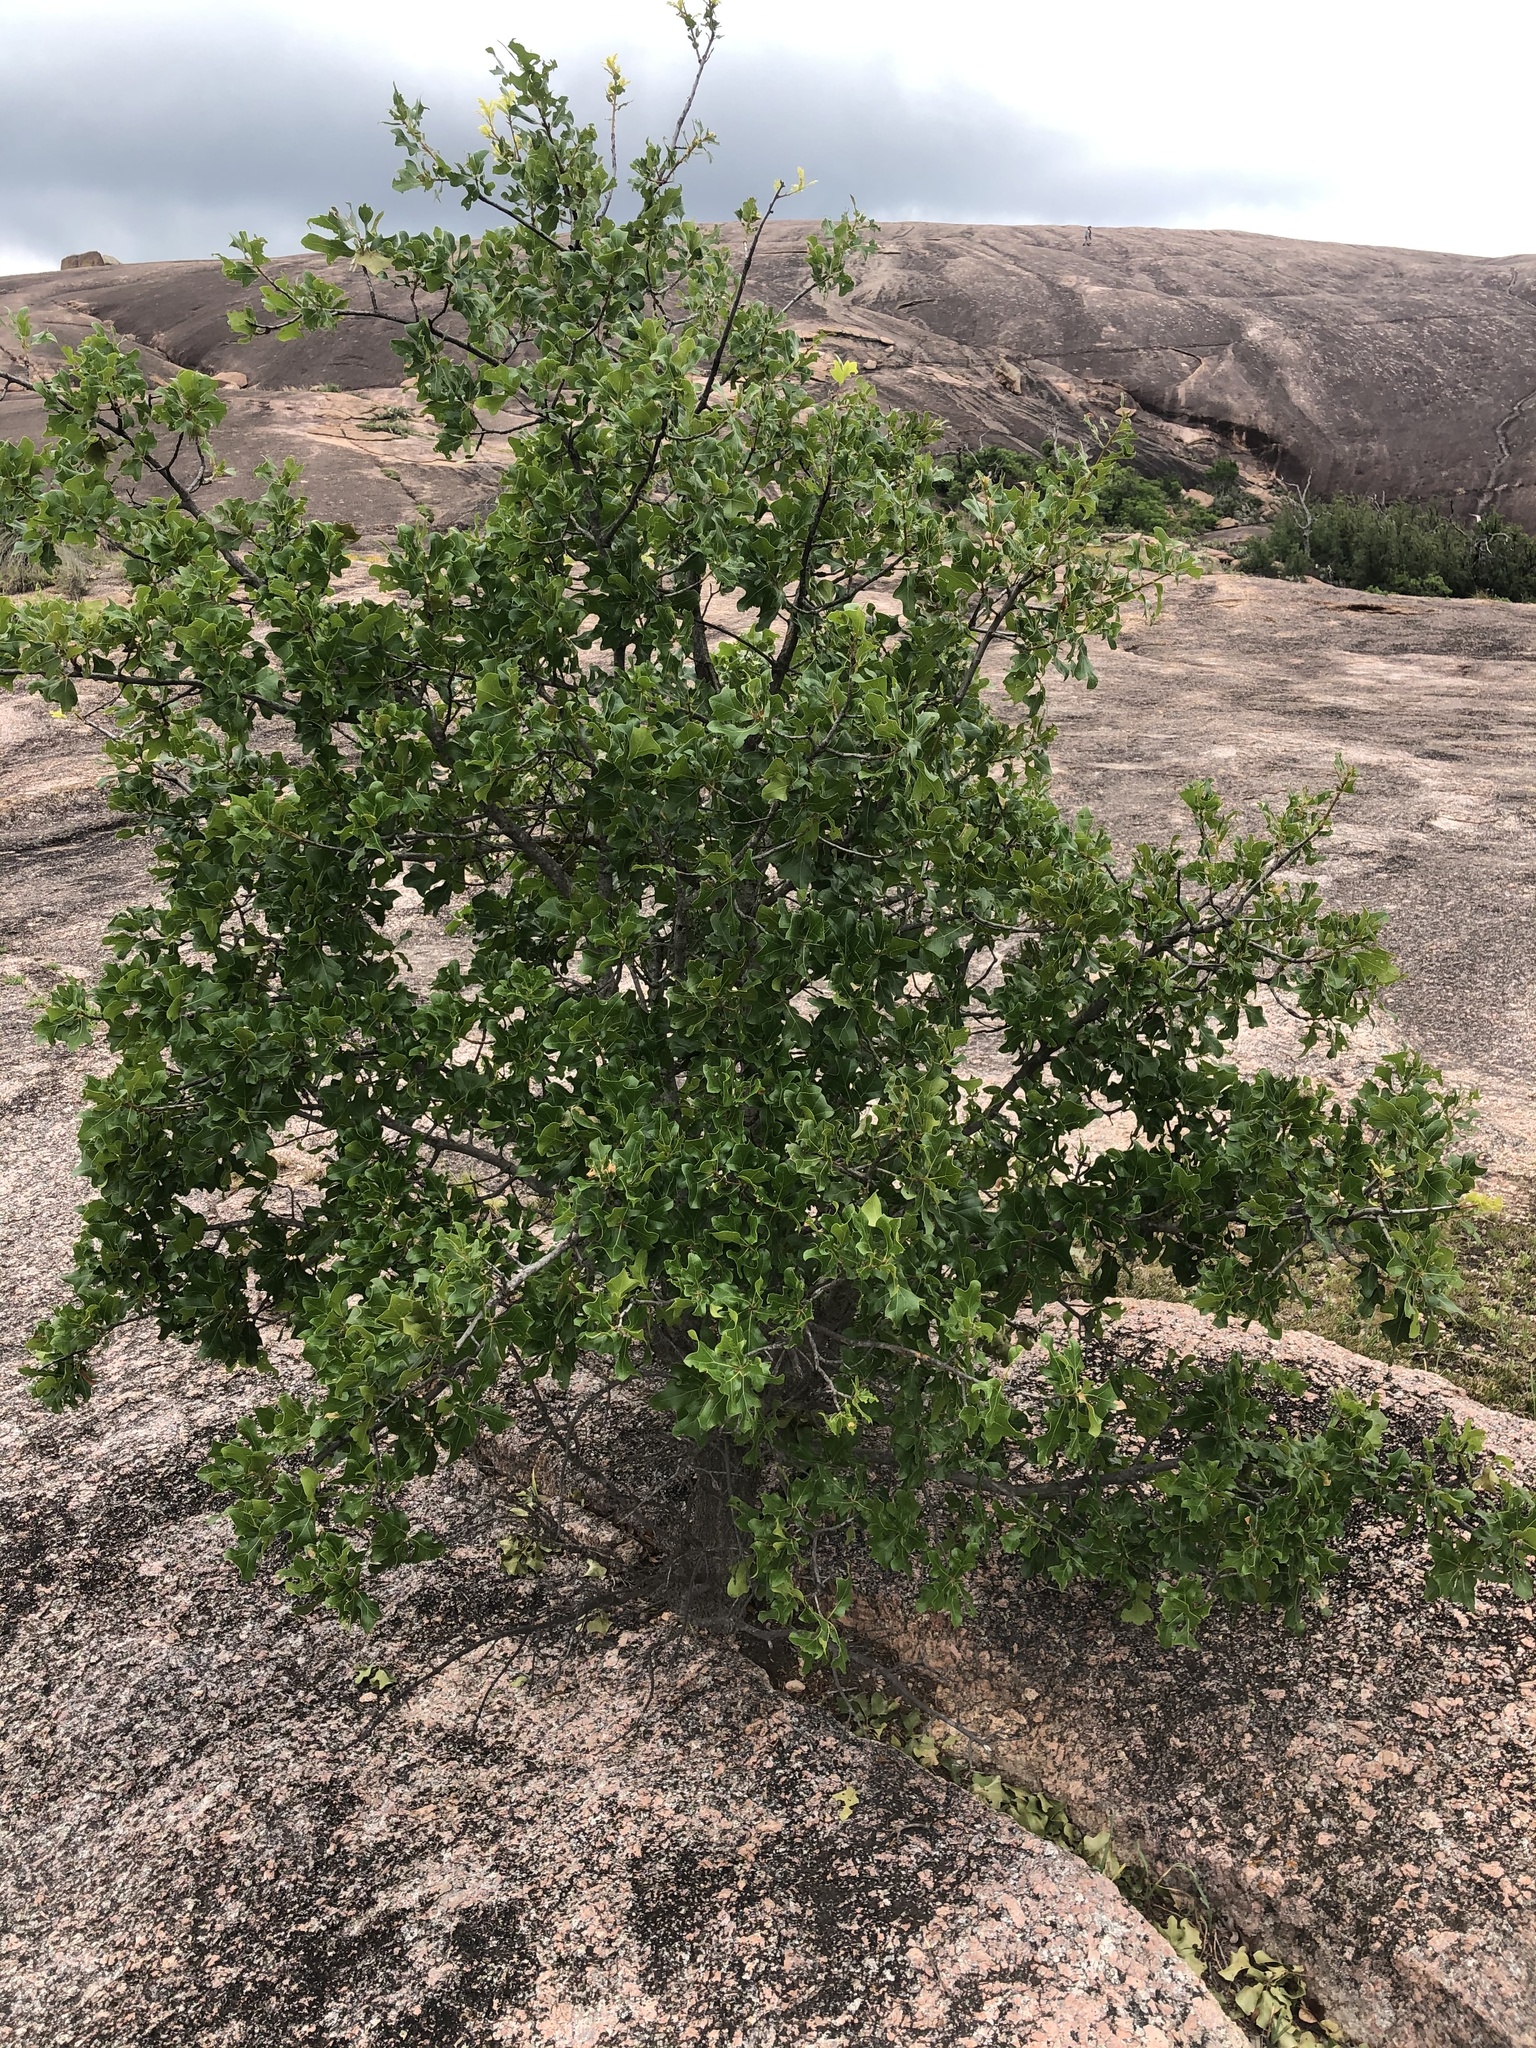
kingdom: Plantae
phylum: Tracheophyta
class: Magnoliopsida
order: Fagales
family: Fagaceae
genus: Quercus
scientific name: Quercus marilandica
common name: Blackjack oak
